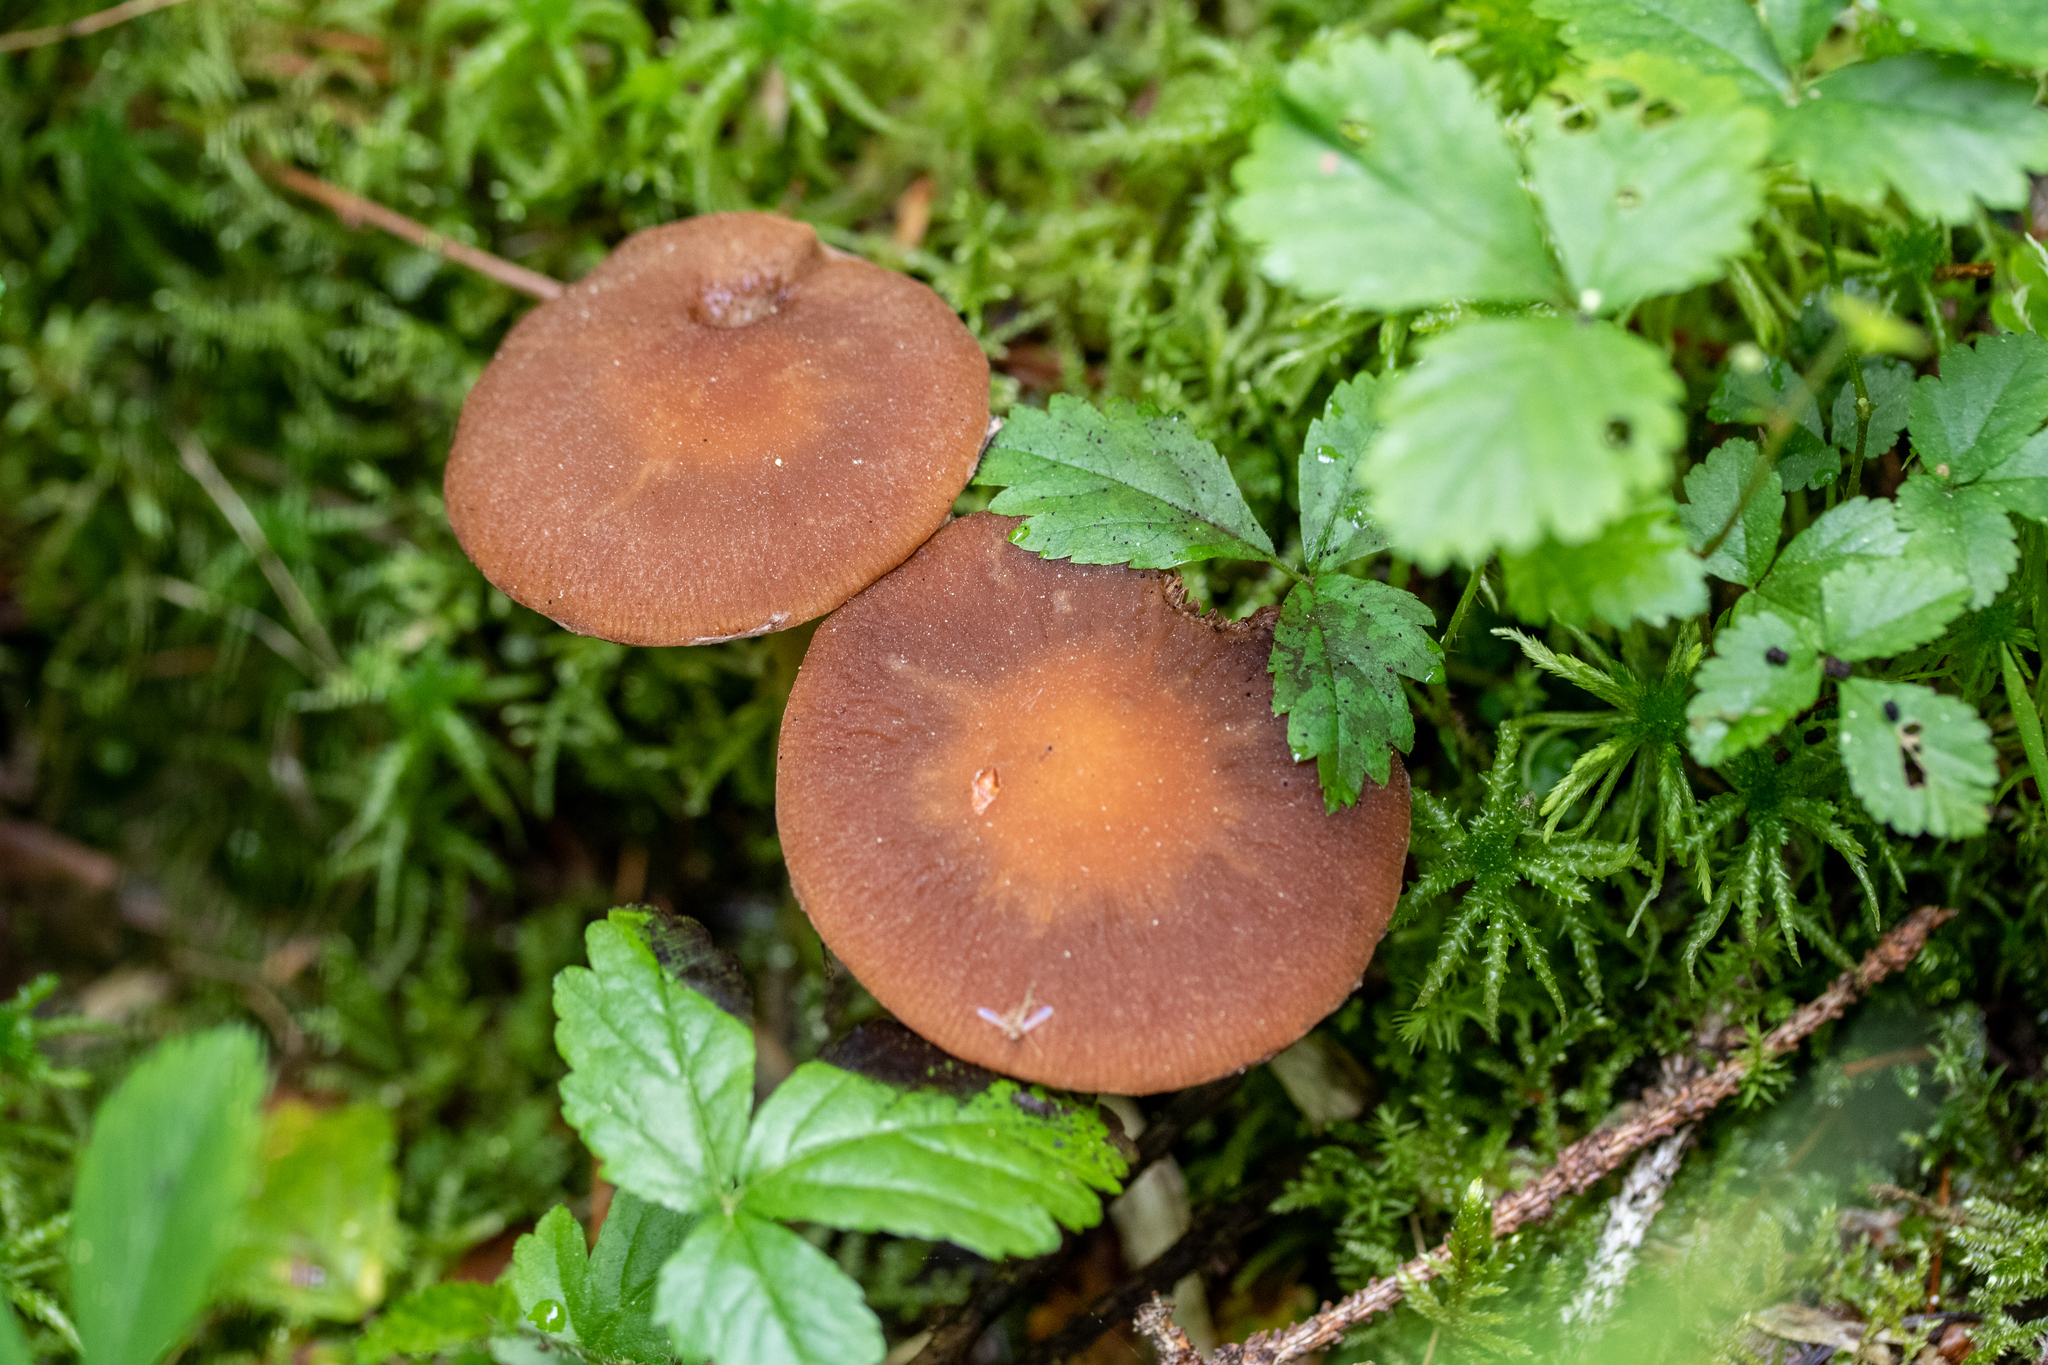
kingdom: Fungi
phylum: Basidiomycota
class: Agaricomycetes
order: Agaricales
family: Psathyrellaceae
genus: Typhrasa
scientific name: Typhrasa gossypina
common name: Wrinkled psathyrella
